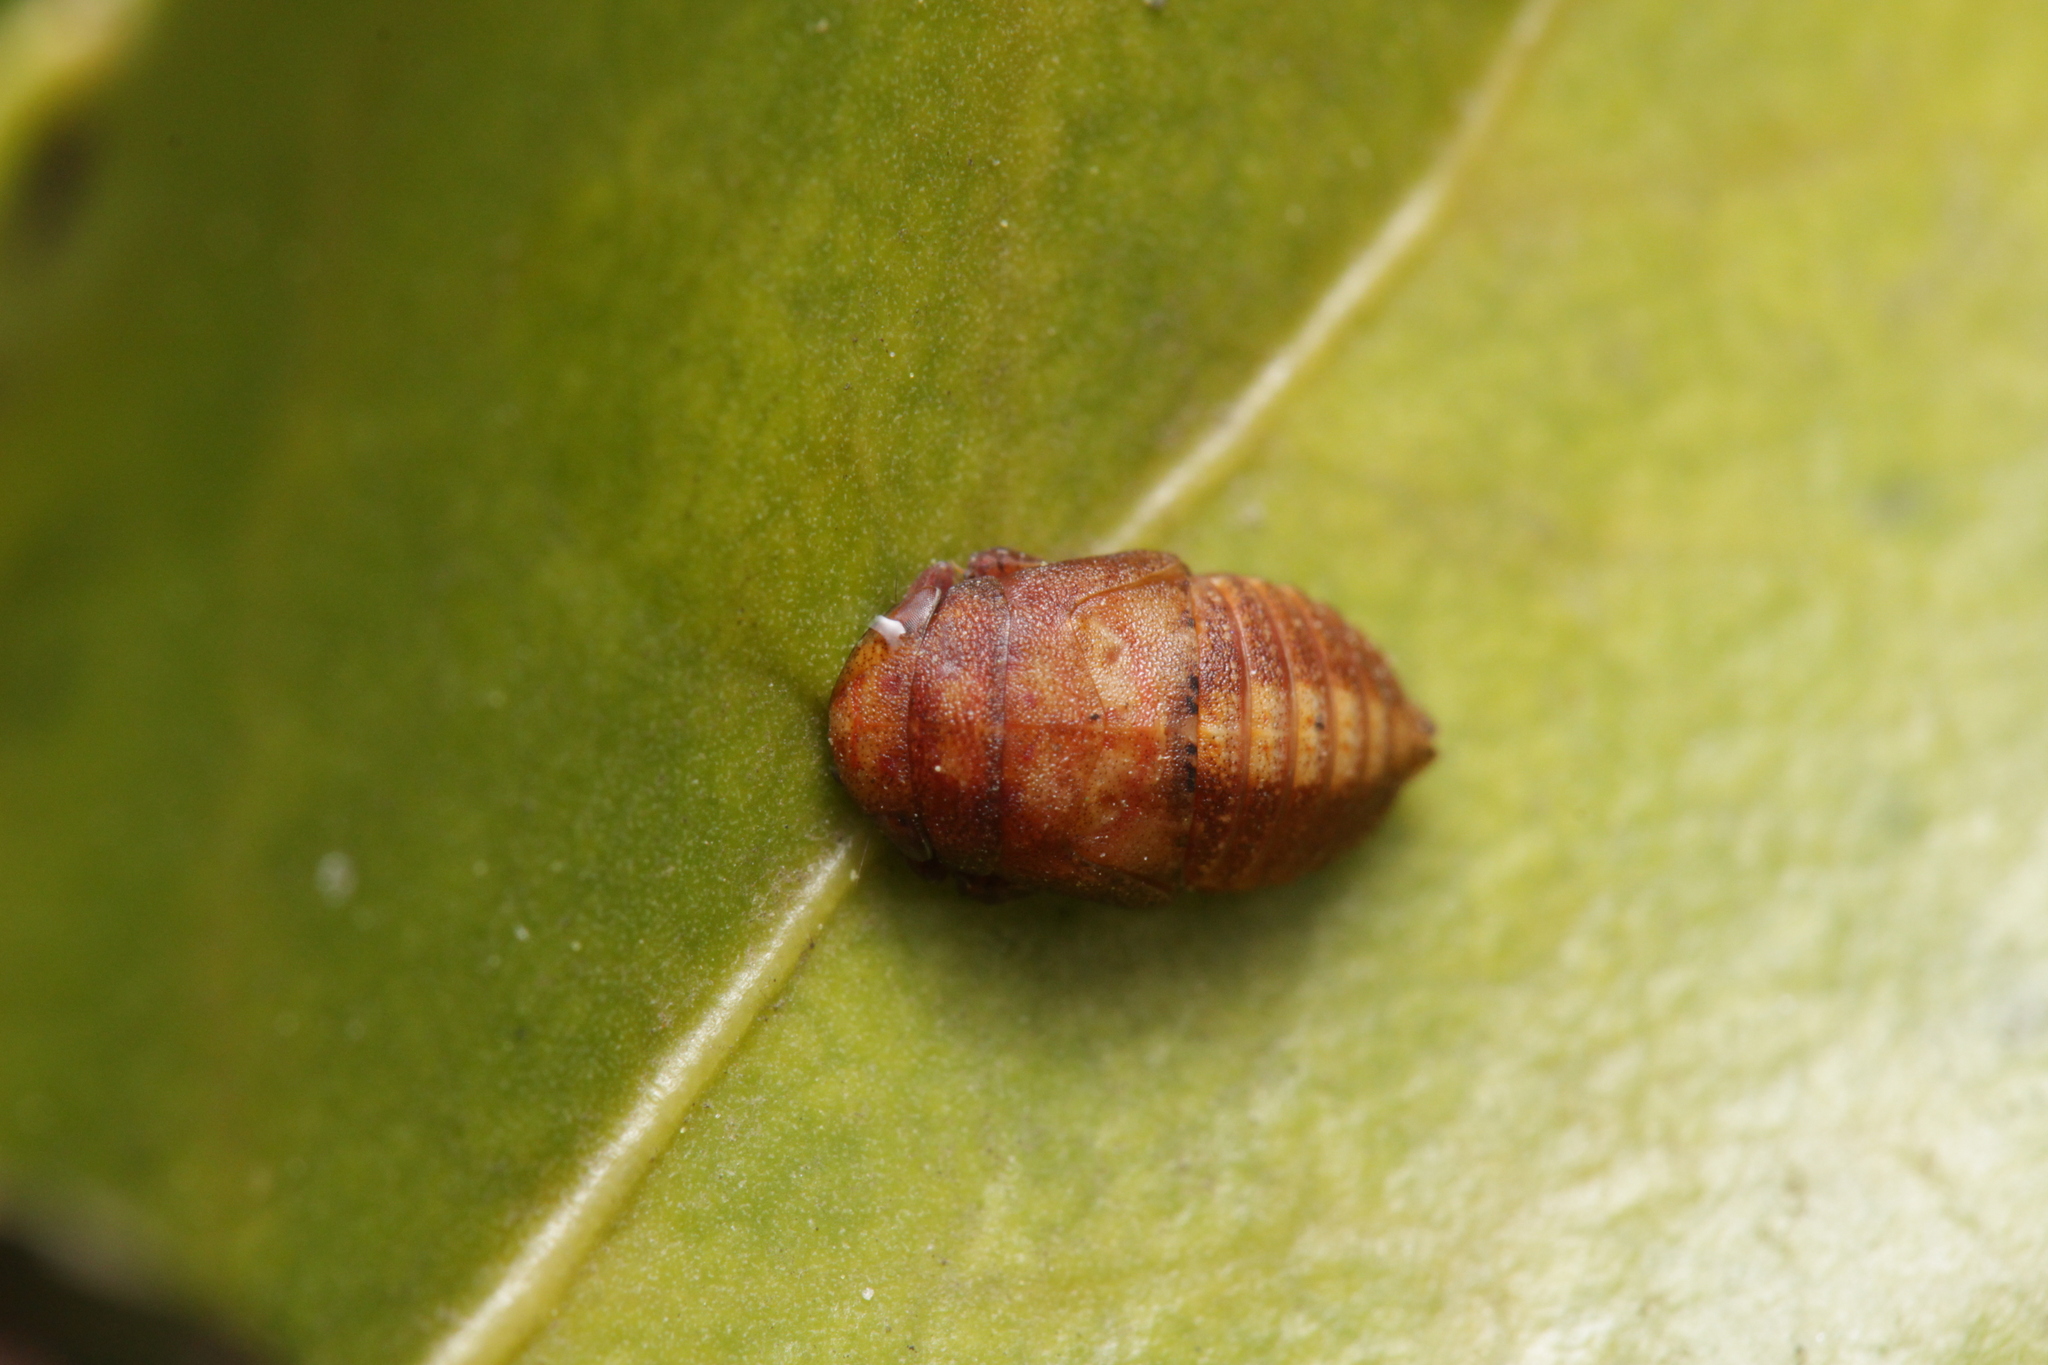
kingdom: Animalia
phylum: Arthropoda
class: Insecta
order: Hemiptera
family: Cicadellidae
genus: Penthimia
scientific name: Penthimia nigra
